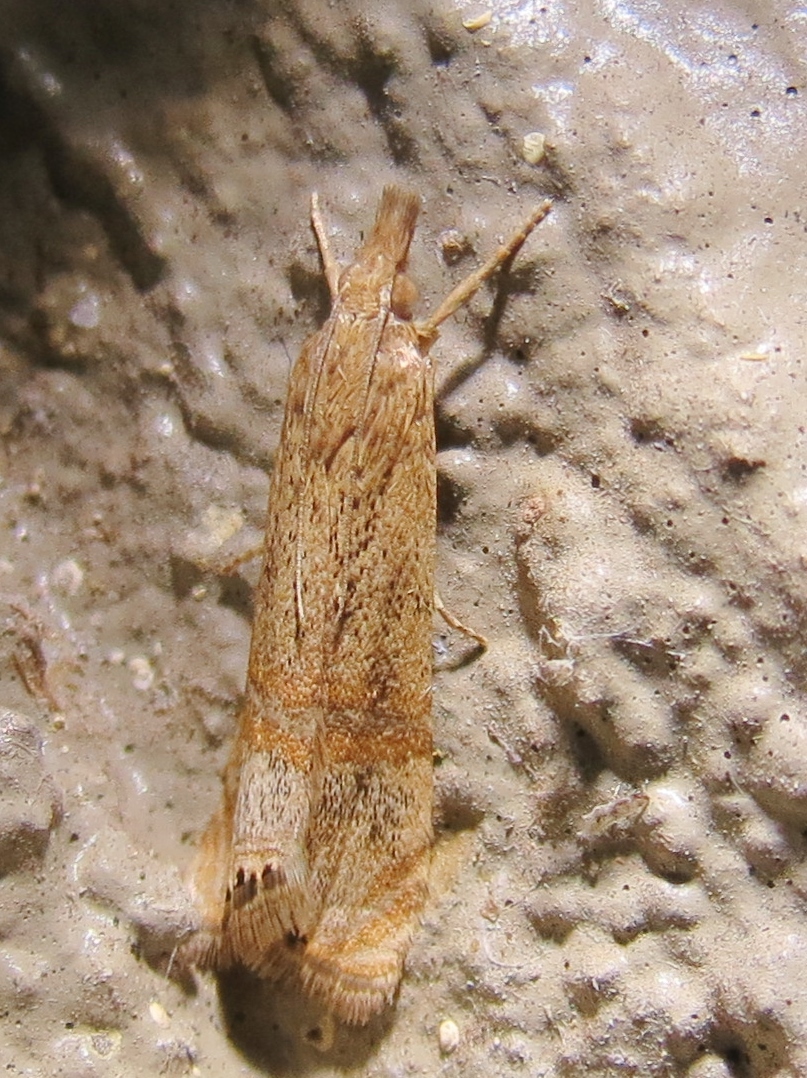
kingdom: Animalia
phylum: Arthropoda
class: Insecta
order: Lepidoptera
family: Crambidae
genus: Euchromius
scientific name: Euchromius ocellea
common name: Necklace veneer moth
